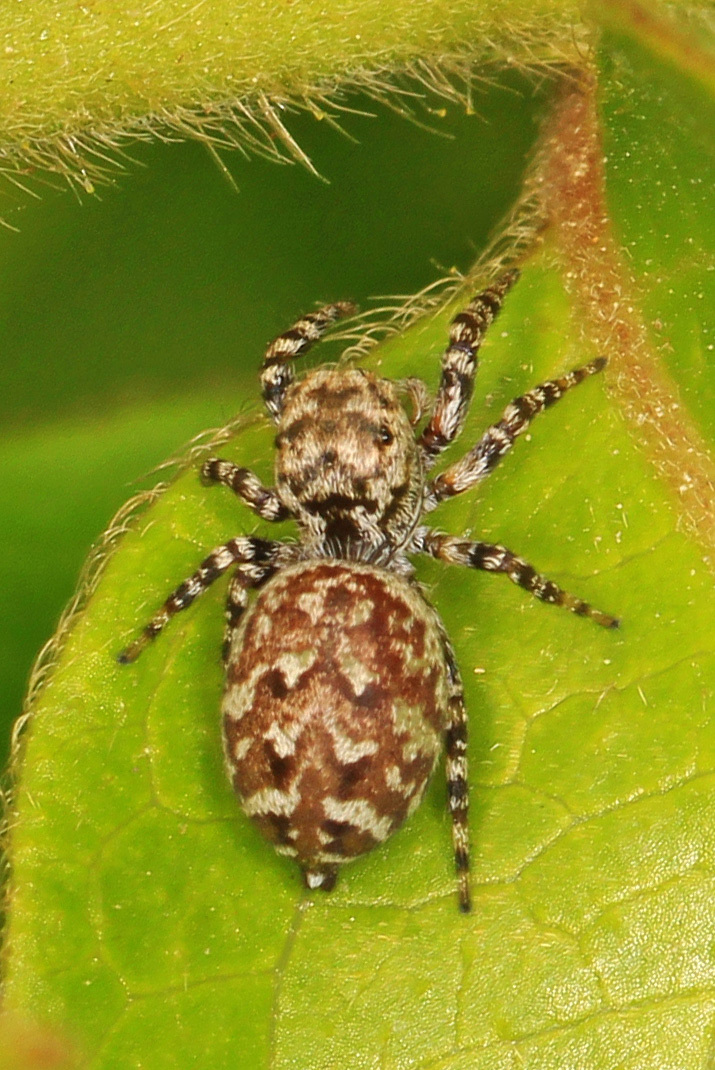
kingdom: Animalia
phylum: Arthropoda
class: Arachnida
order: Araneae
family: Salticidae
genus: Pelegrina
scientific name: Pelegrina galathea
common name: Jumping spiders
